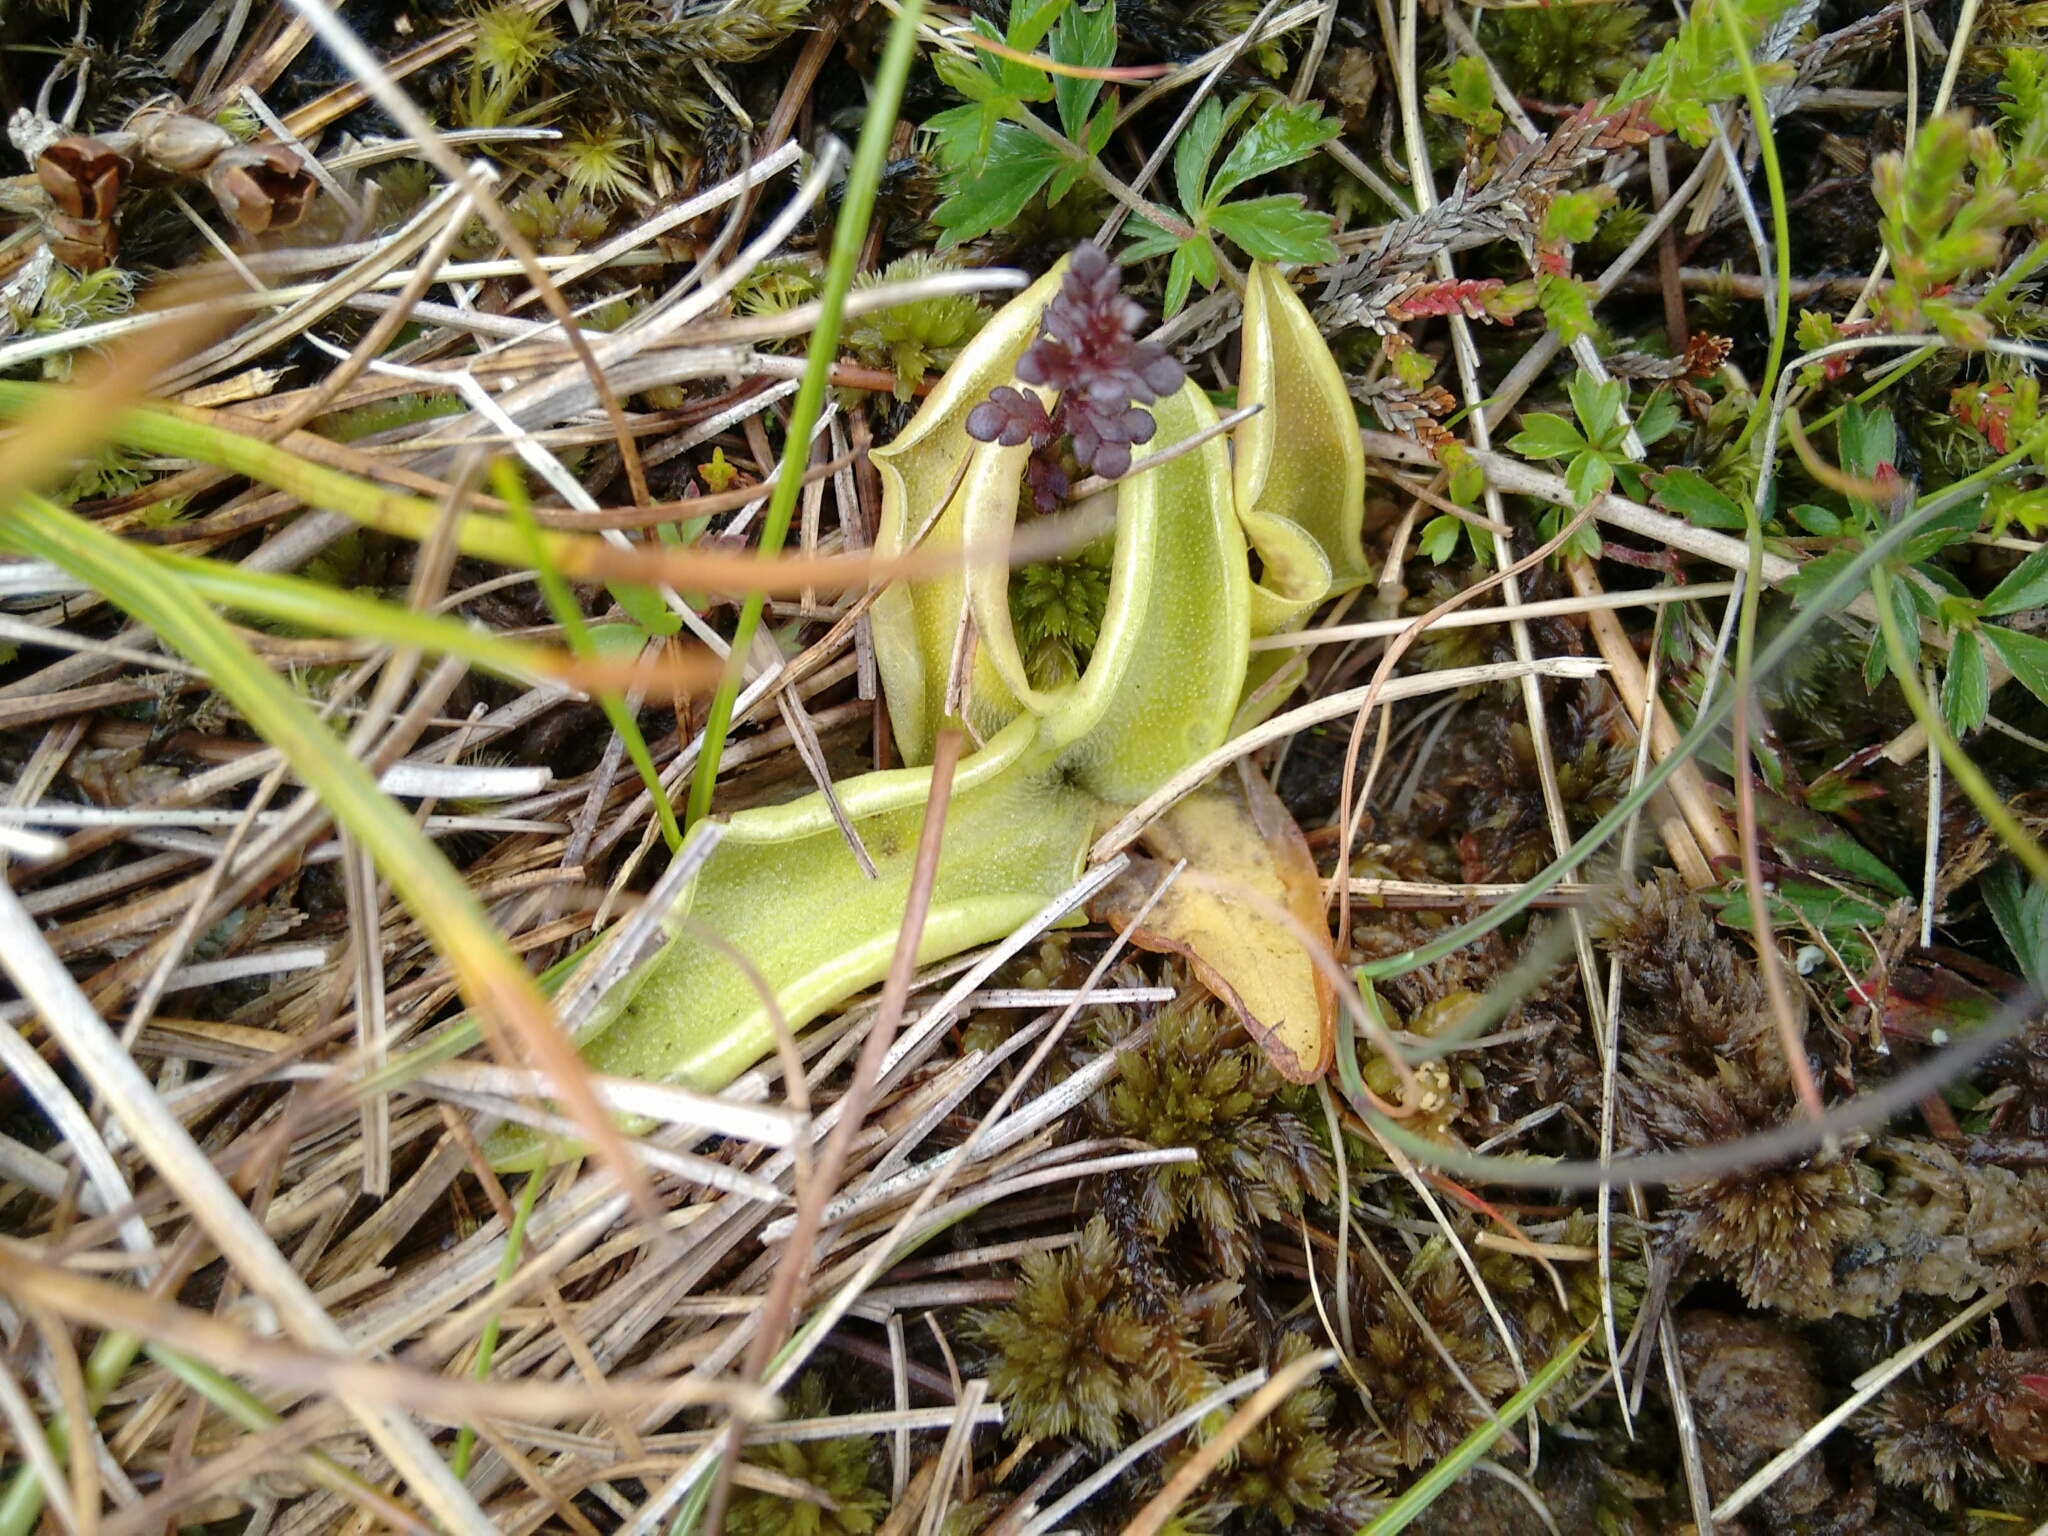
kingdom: Plantae
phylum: Tracheophyta
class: Magnoliopsida
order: Lamiales
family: Lentibulariaceae
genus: Pinguicula
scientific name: Pinguicula vulgaris
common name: Common butterwort
